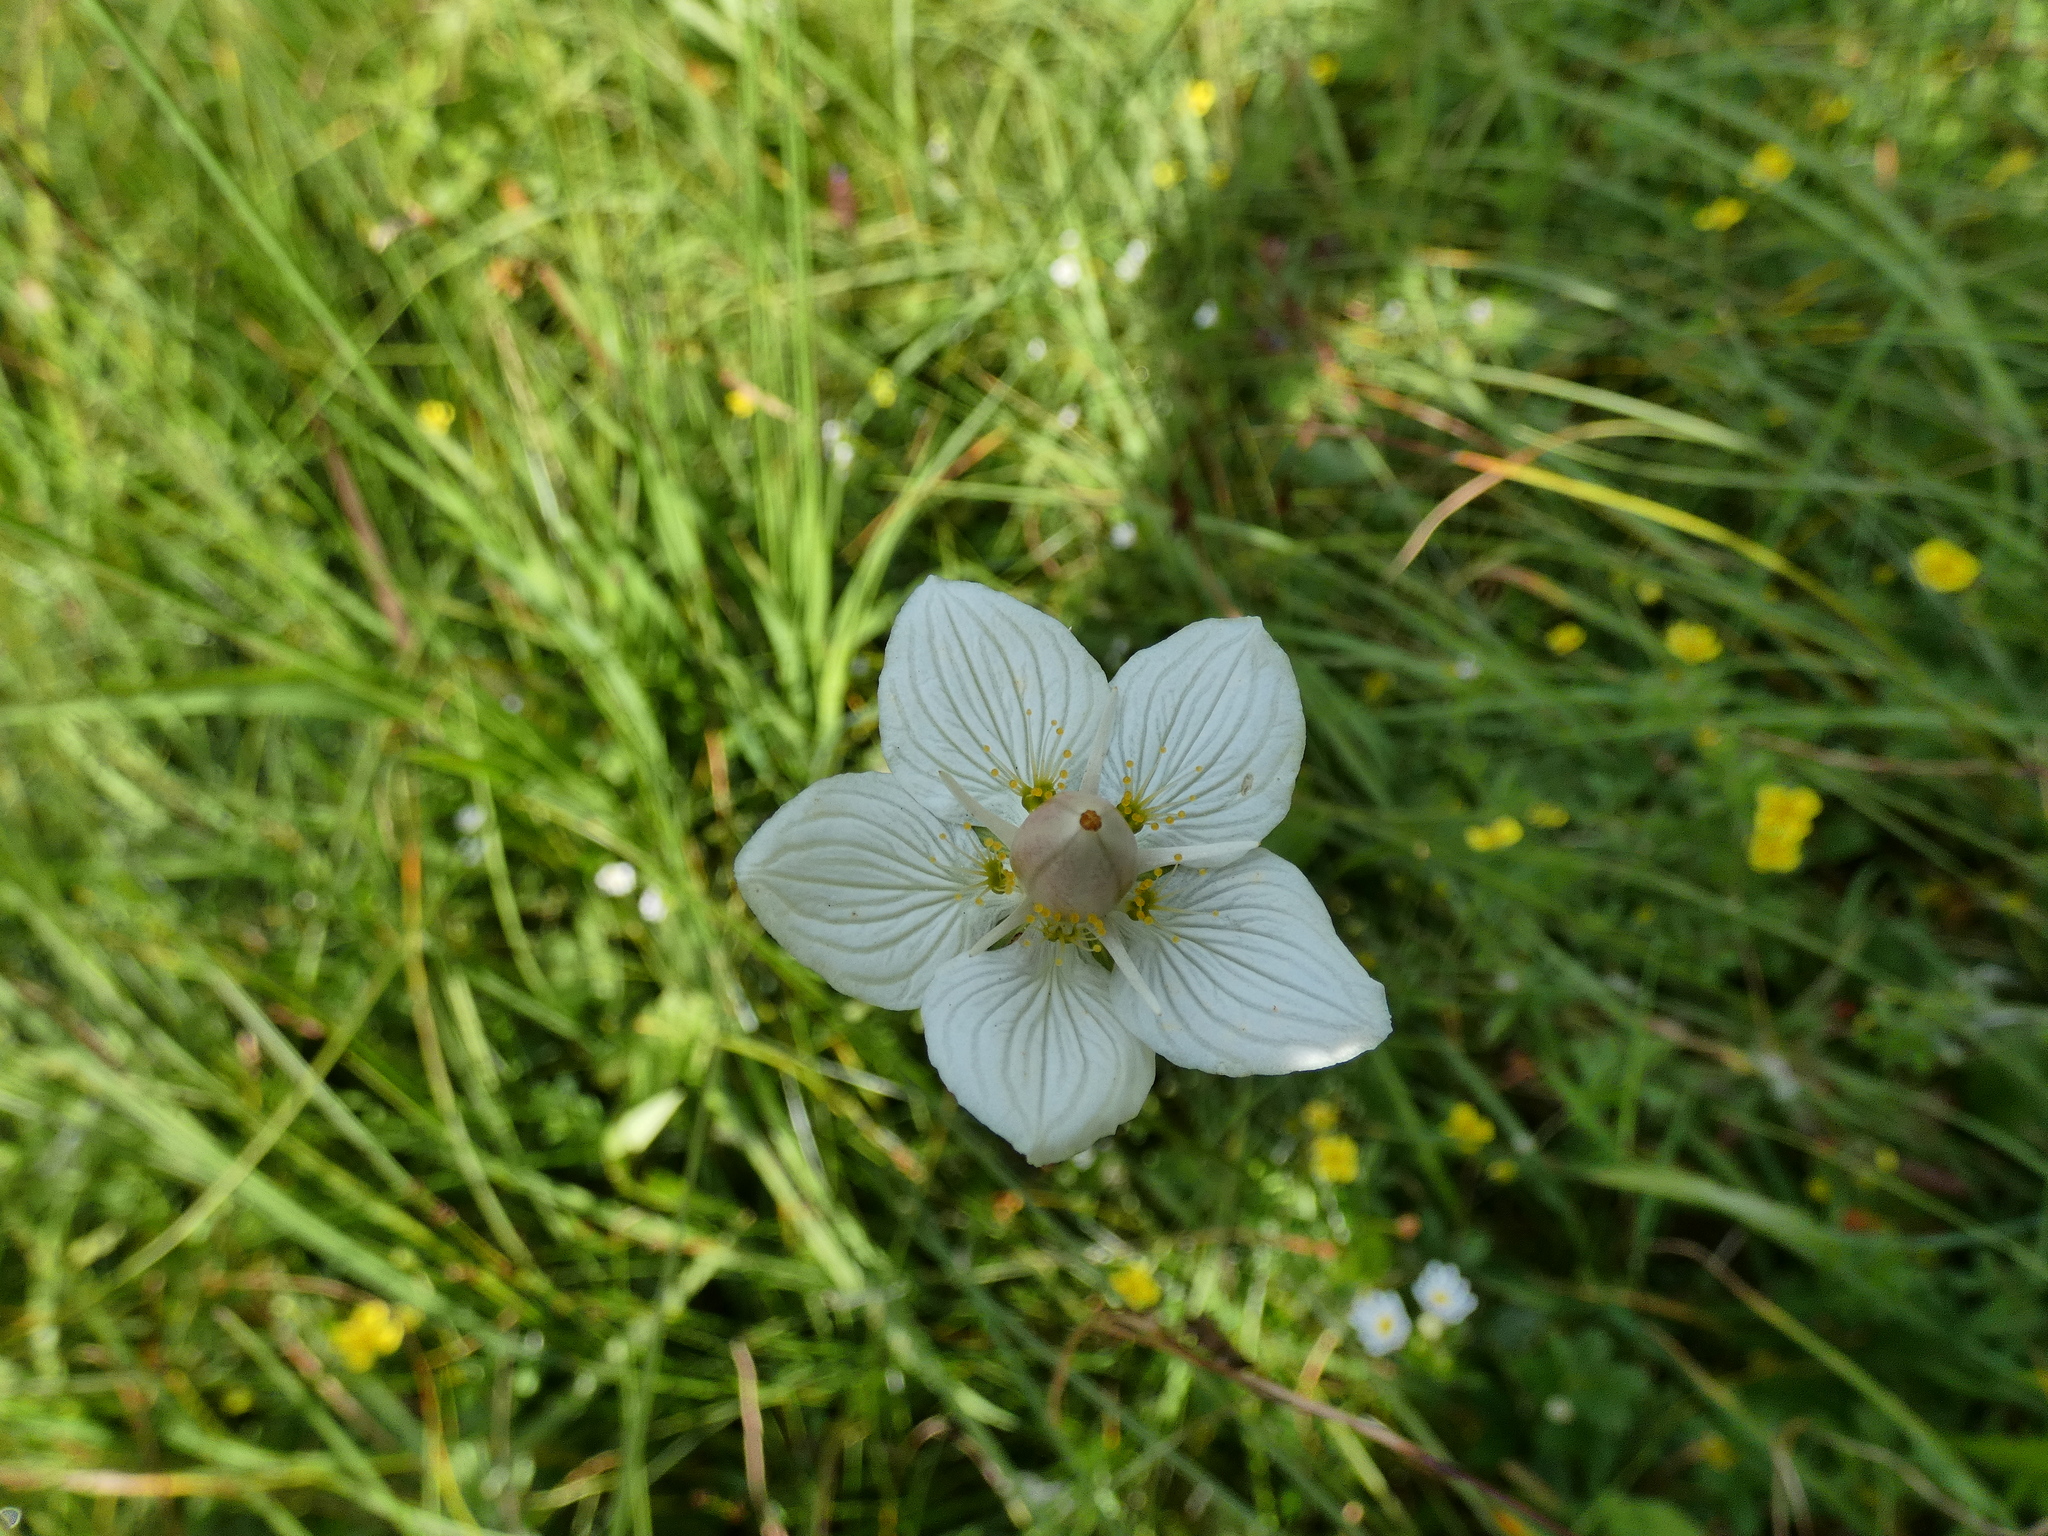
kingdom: Plantae
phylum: Tracheophyta
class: Magnoliopsida
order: Celastrales
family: Parnassiaceae
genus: Parnassia
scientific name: Parnassia palustris
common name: Grass-of-parnassus
